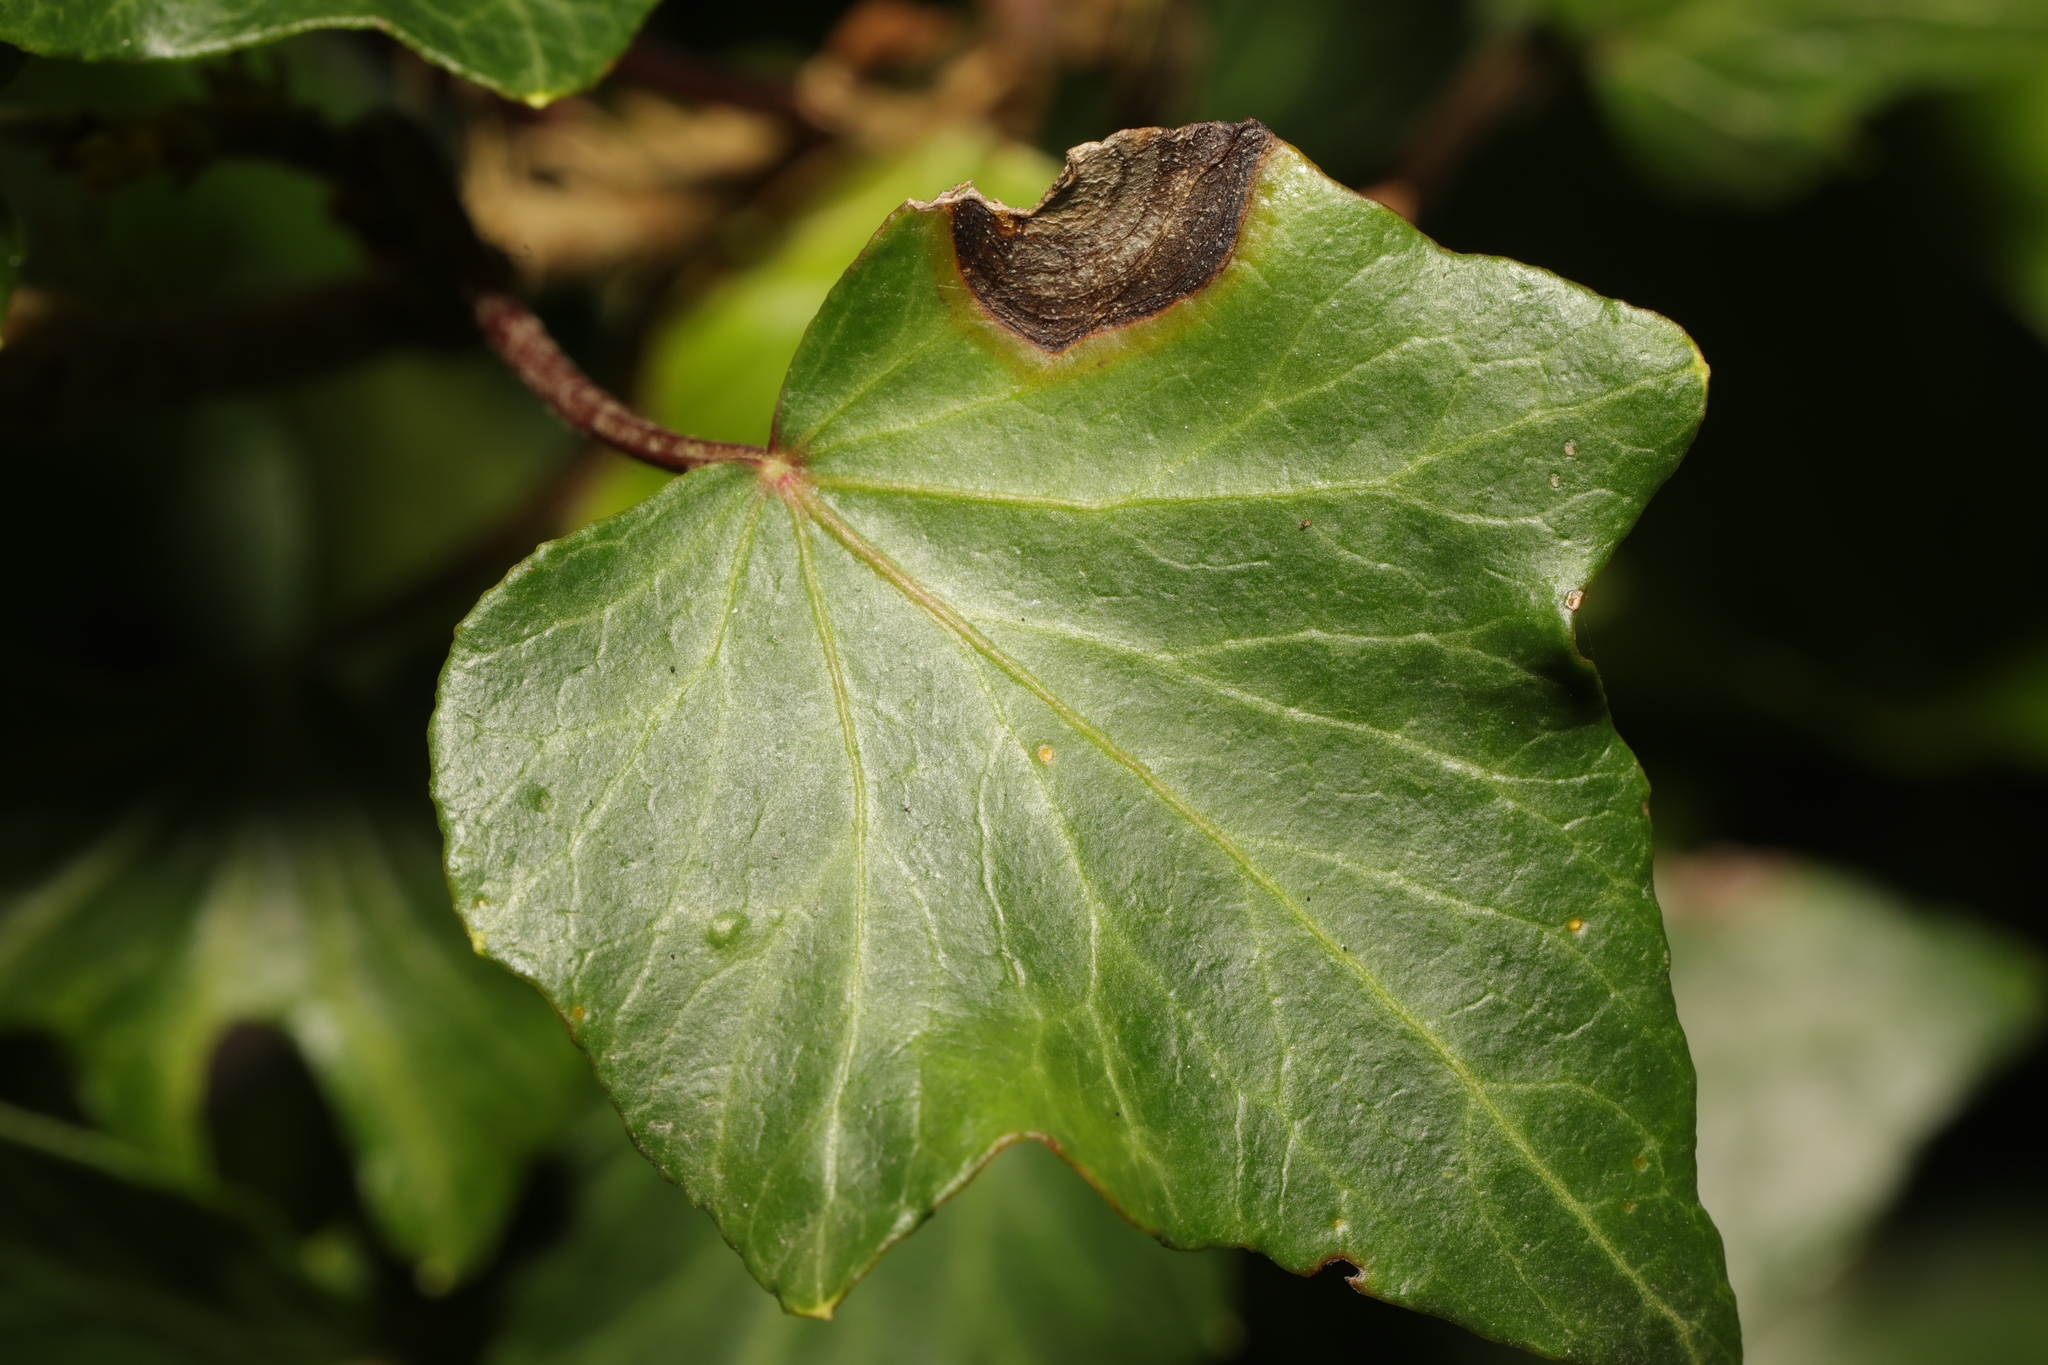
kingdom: Fungi
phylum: Ascomycota
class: Dothideomycetes
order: Pleosporales
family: Didymellaceae
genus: Boeremia
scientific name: Boeremia hedericola
